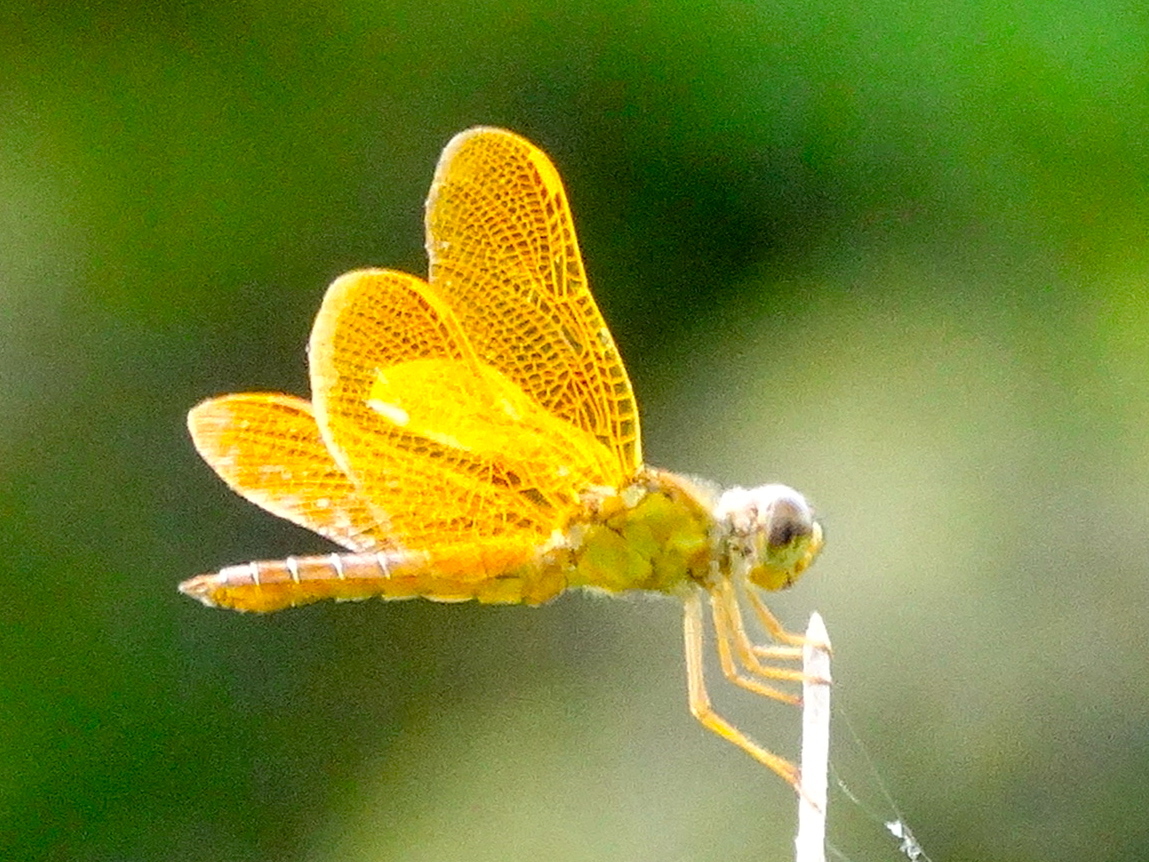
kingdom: Animalia
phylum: Arthropoda
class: Insecta
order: Odonata
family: Libellulidae
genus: Perithemis
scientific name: Perithemis intensa
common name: Mexican amberwing
